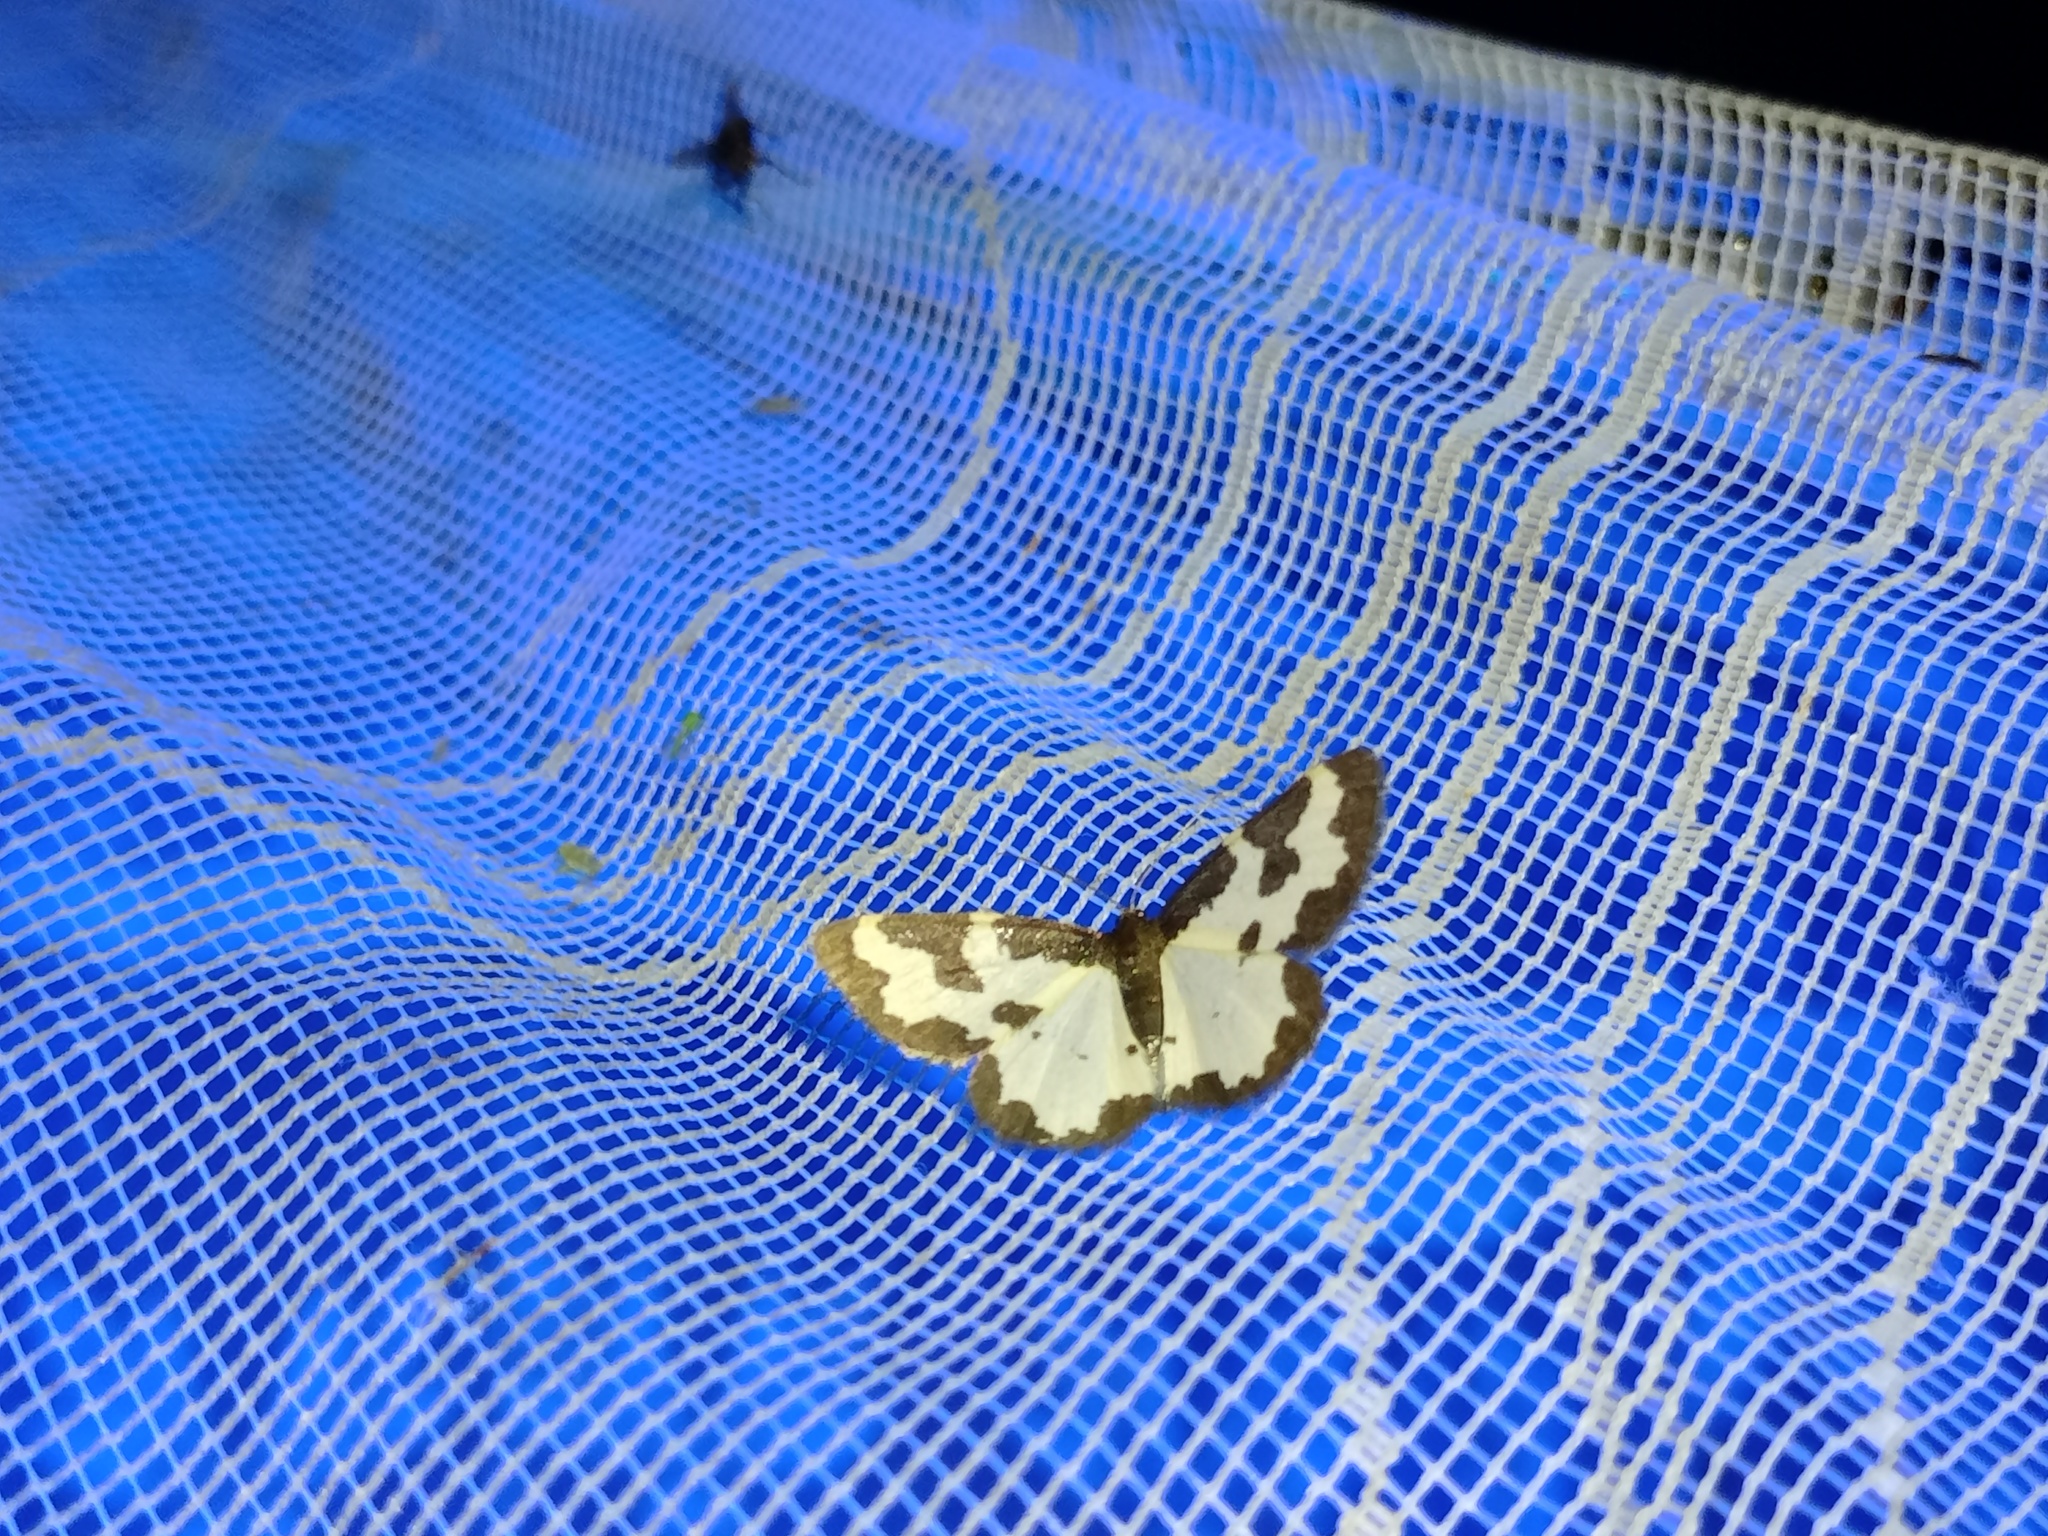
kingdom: Animalia
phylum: Arthropoda
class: Insecta
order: Lepidoptera
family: Geometridae
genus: Lomaspilis
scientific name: Lomaspilis marginata
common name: Clouded border
